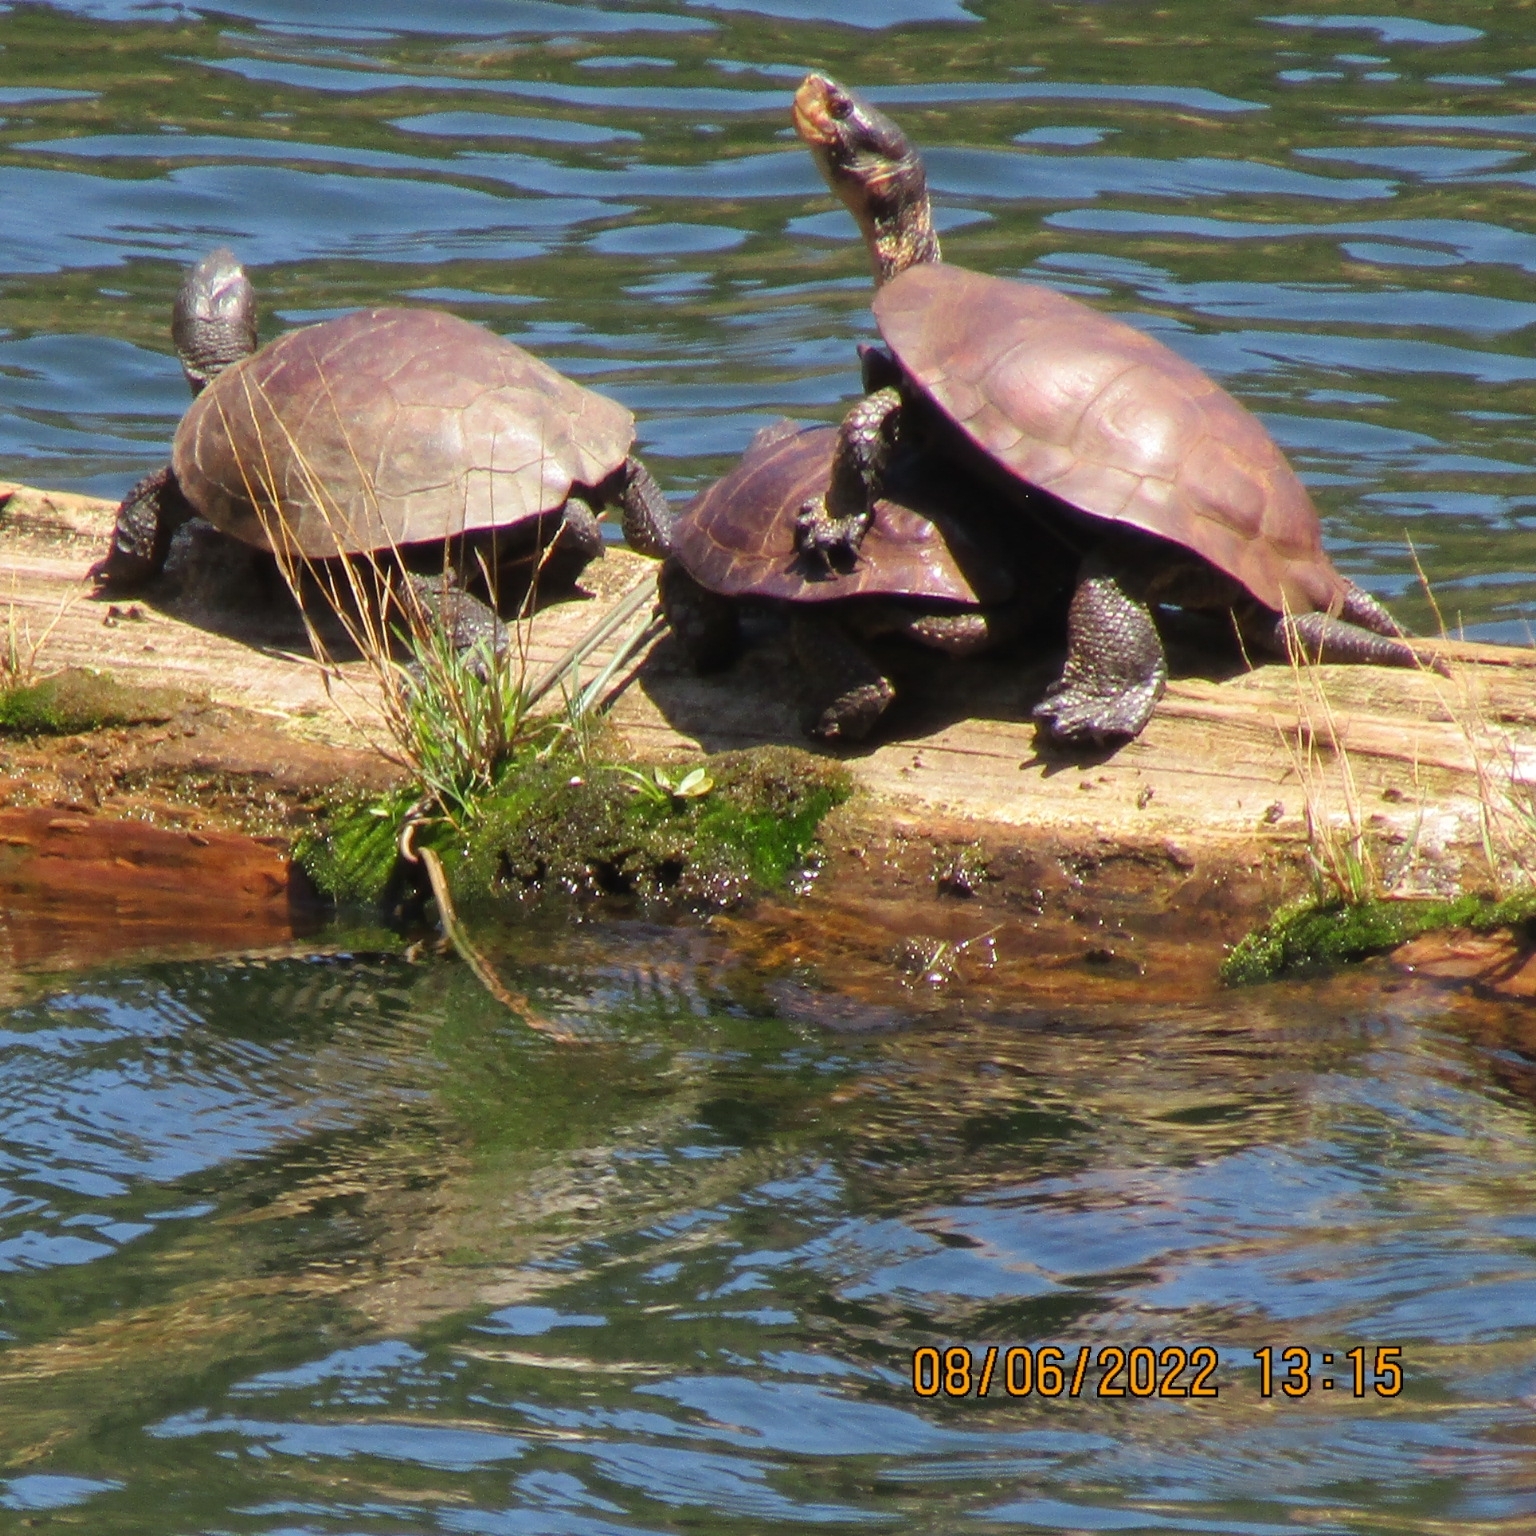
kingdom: Animalia
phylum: Chordata
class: Testudines
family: Emydidae
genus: Actinemys
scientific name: Actinemys marmorata
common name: Western pond turtle
